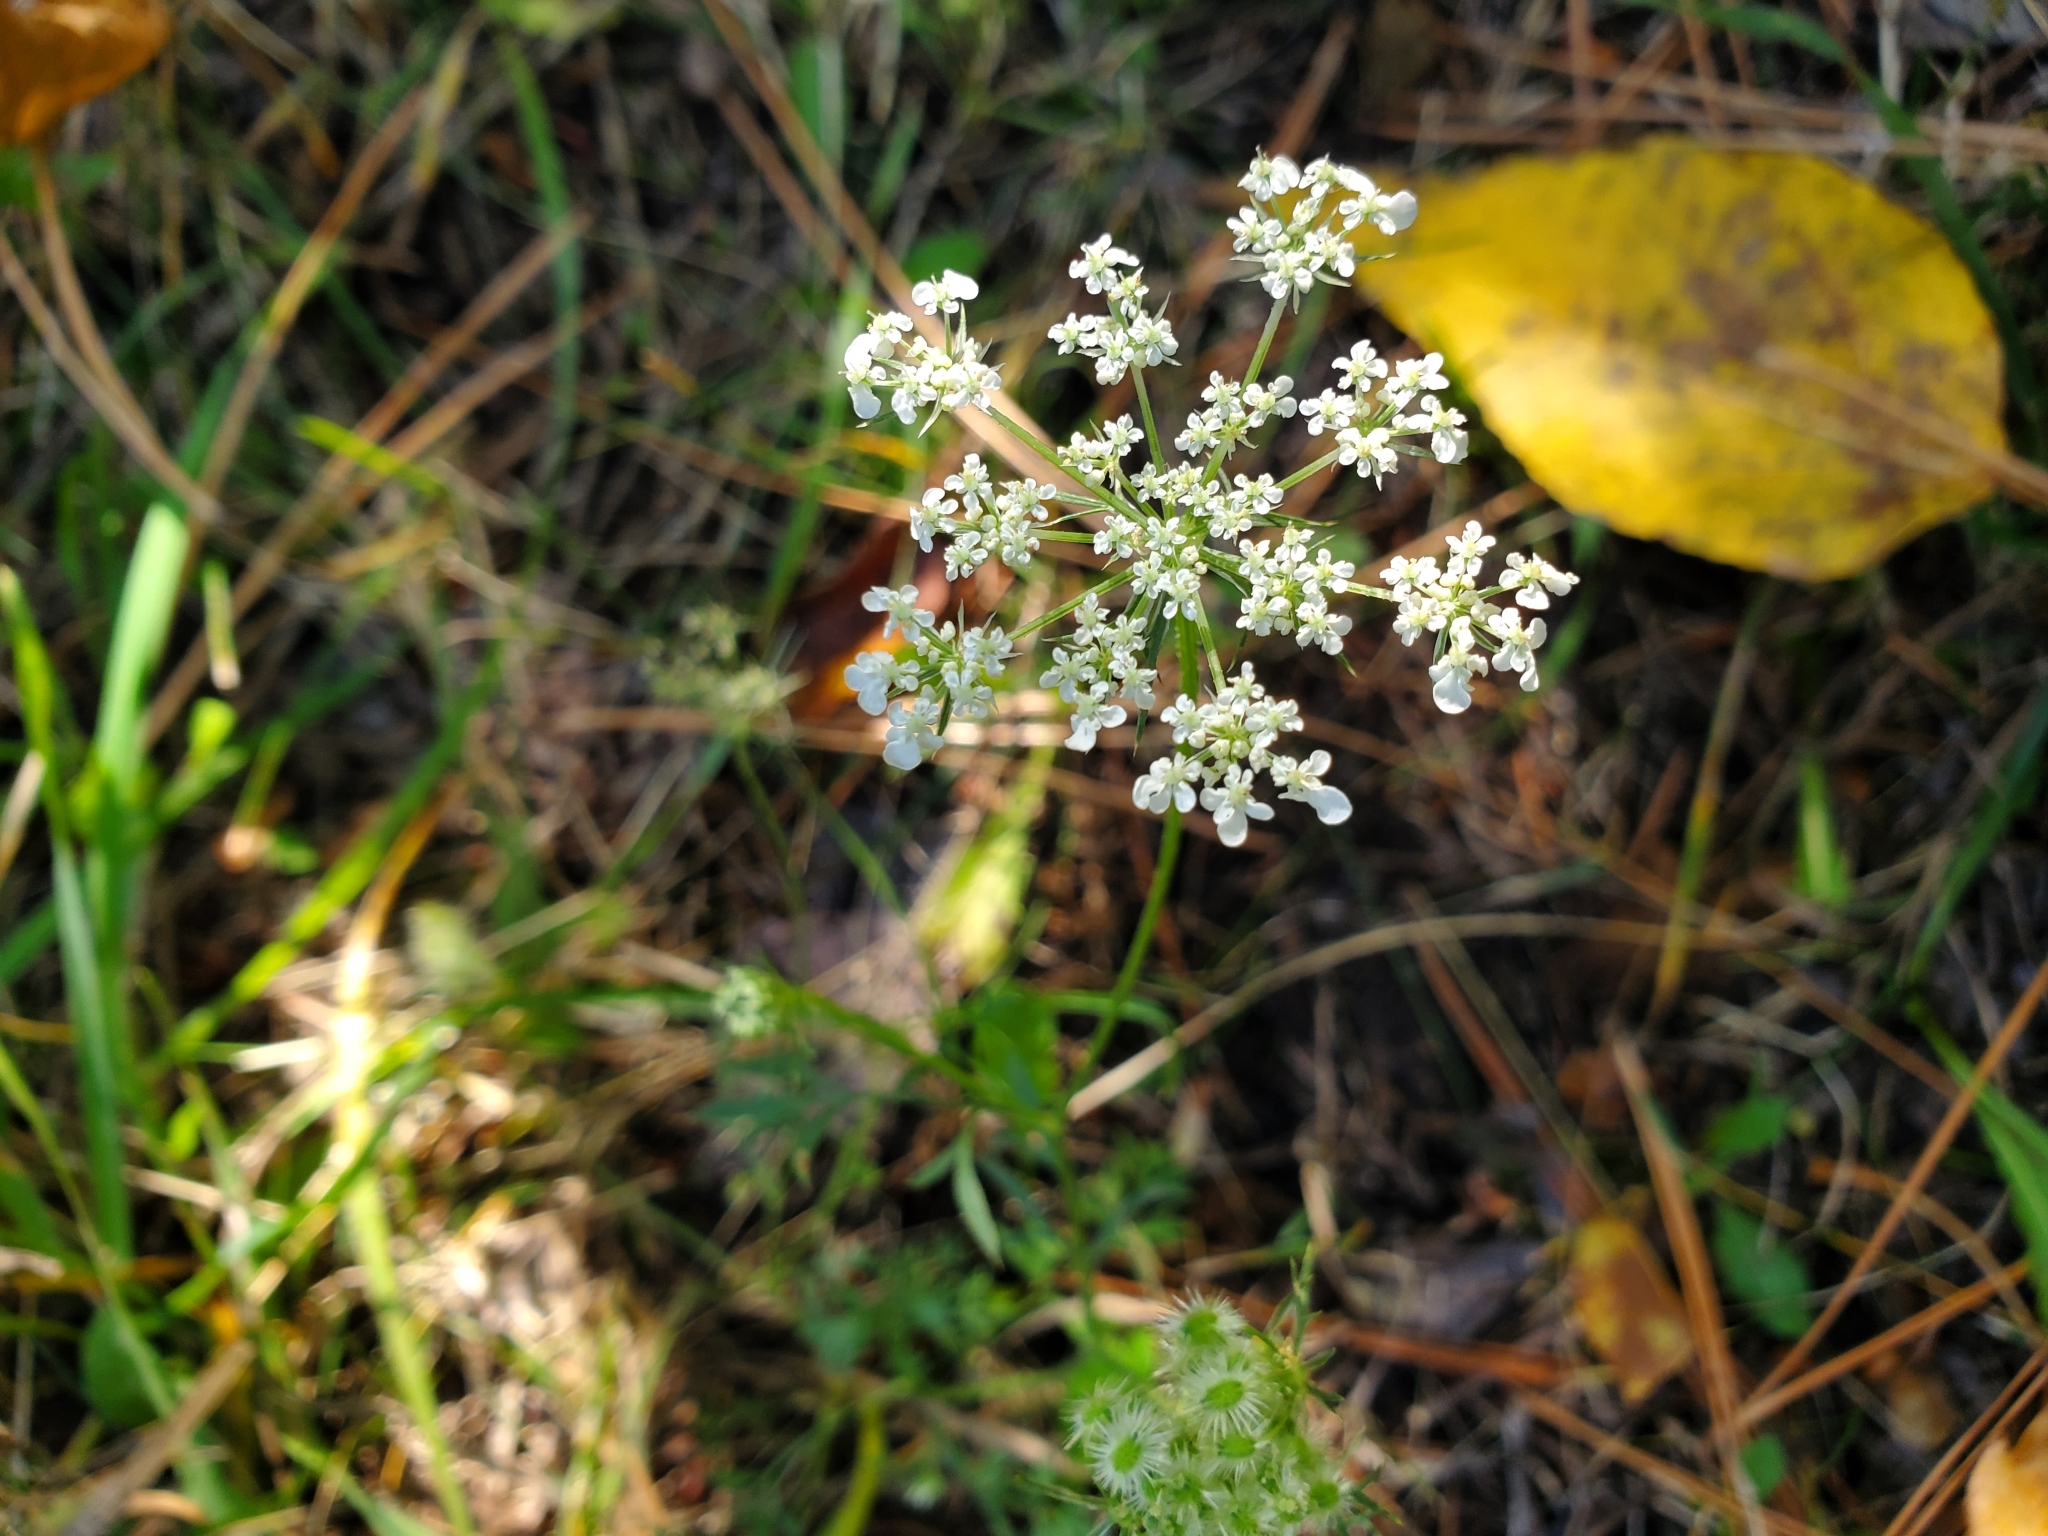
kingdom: Plantae
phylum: Tracheophyta
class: Magnoliopsida
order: Apiales
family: Apiaceae
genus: Daucus
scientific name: Daucus carota
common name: Wild carrot
